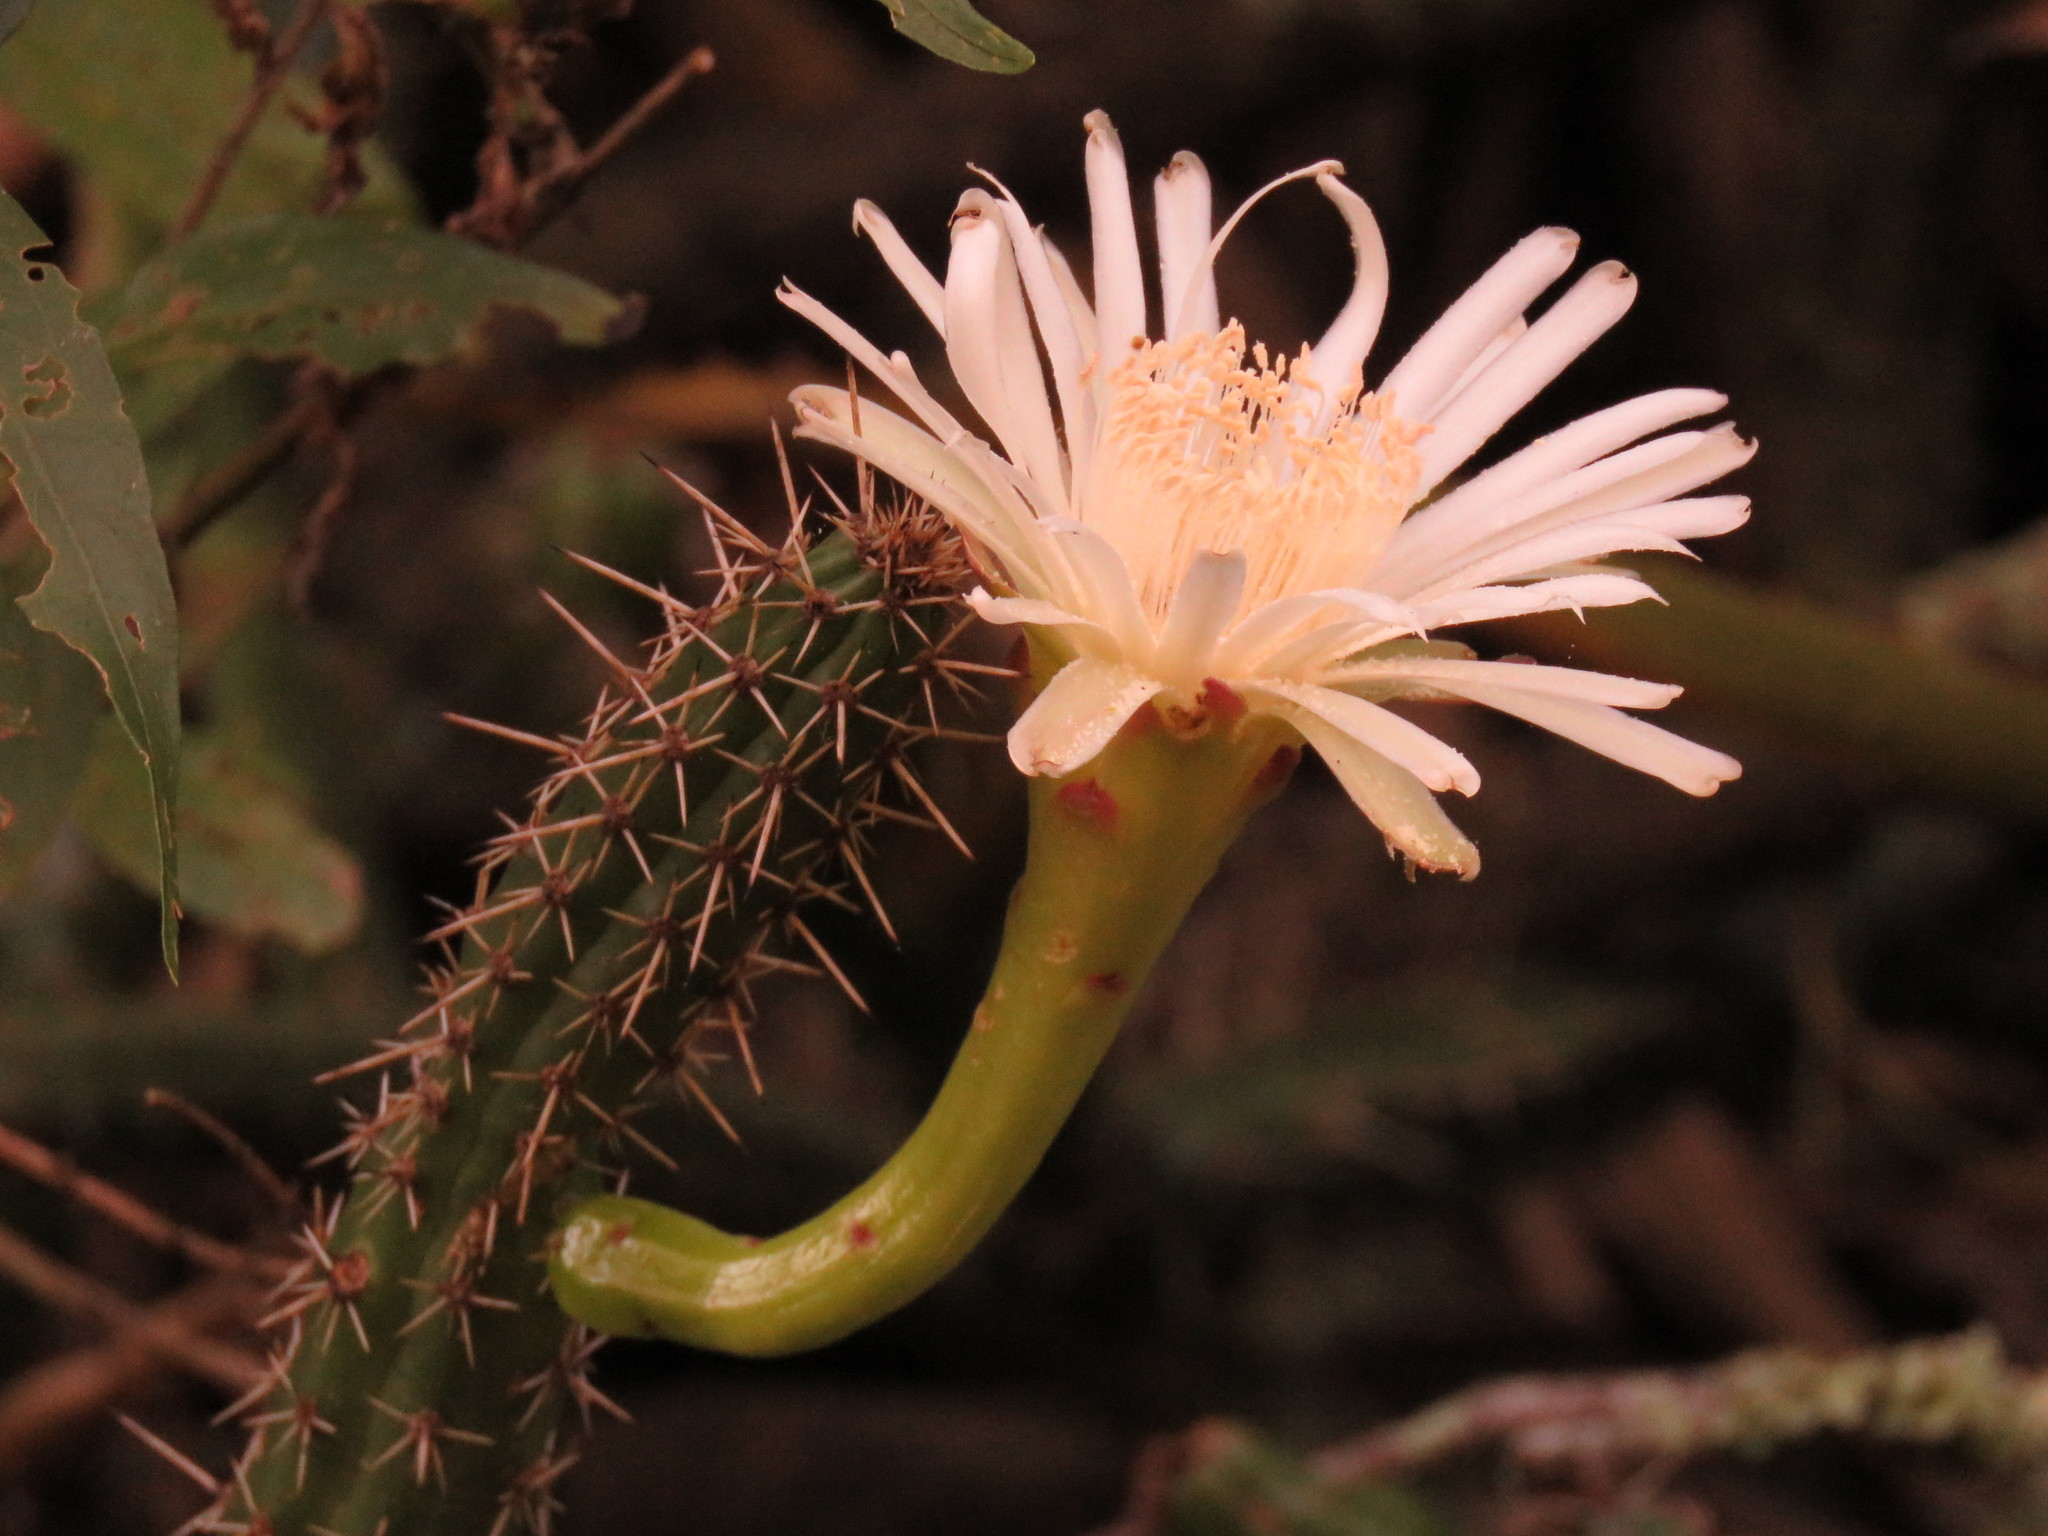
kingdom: Plantae
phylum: Tracheophyta
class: Magnoliopsida
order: Caryophyllales
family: Cactaceae
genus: Praecereus
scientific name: Praecereus euchlorus
